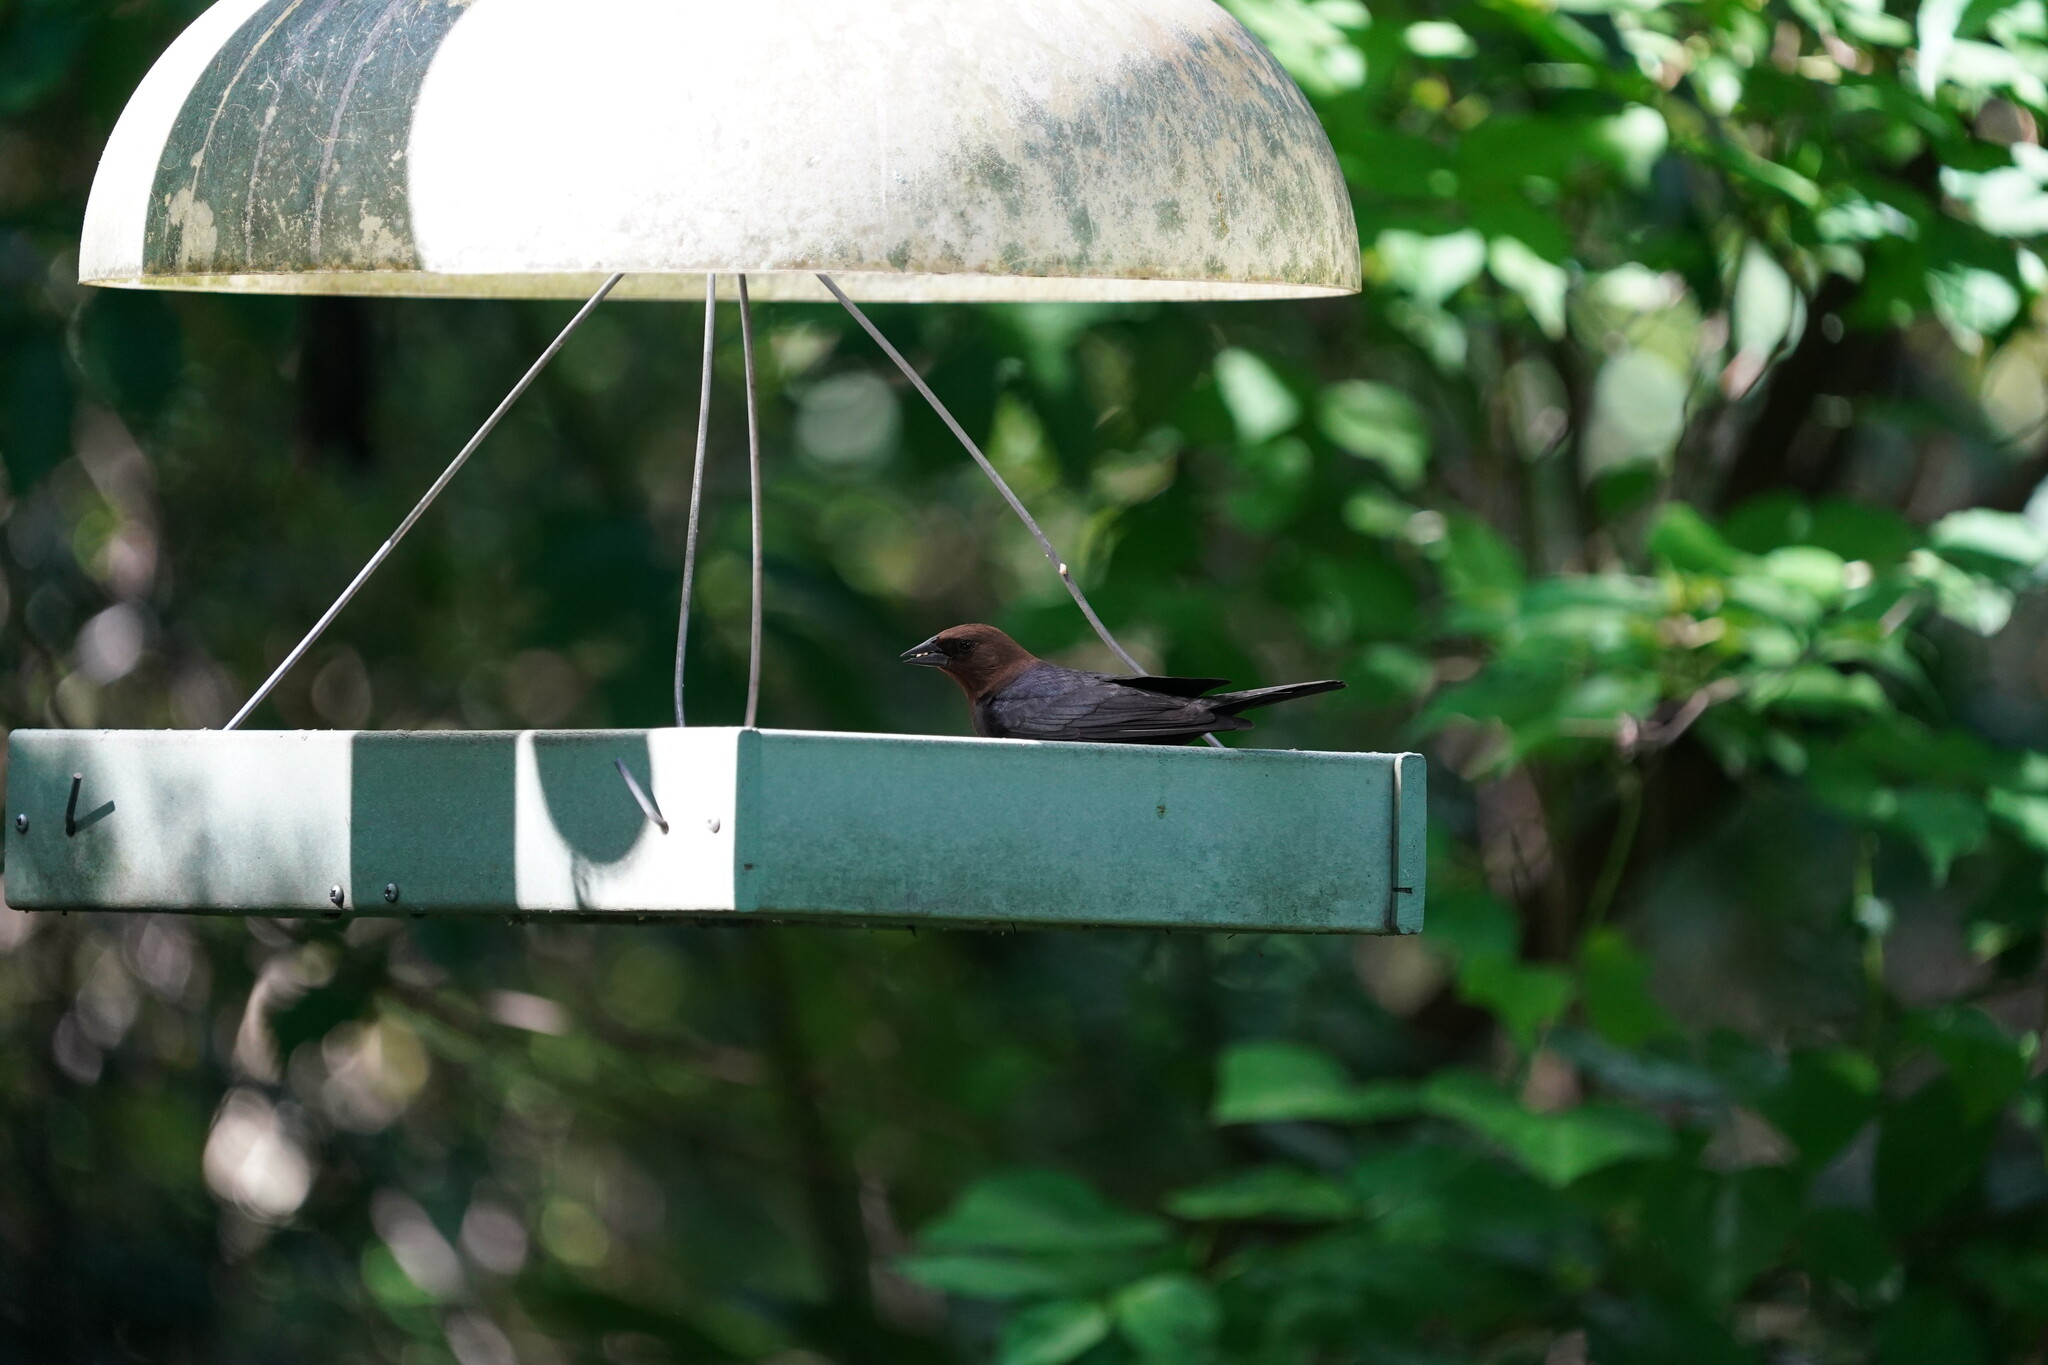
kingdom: Animalia
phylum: Chordata
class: Aves
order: Passeriformes
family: Icteridae
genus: Molothrus
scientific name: Molothrus ater
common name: Brown-headed cowbird
